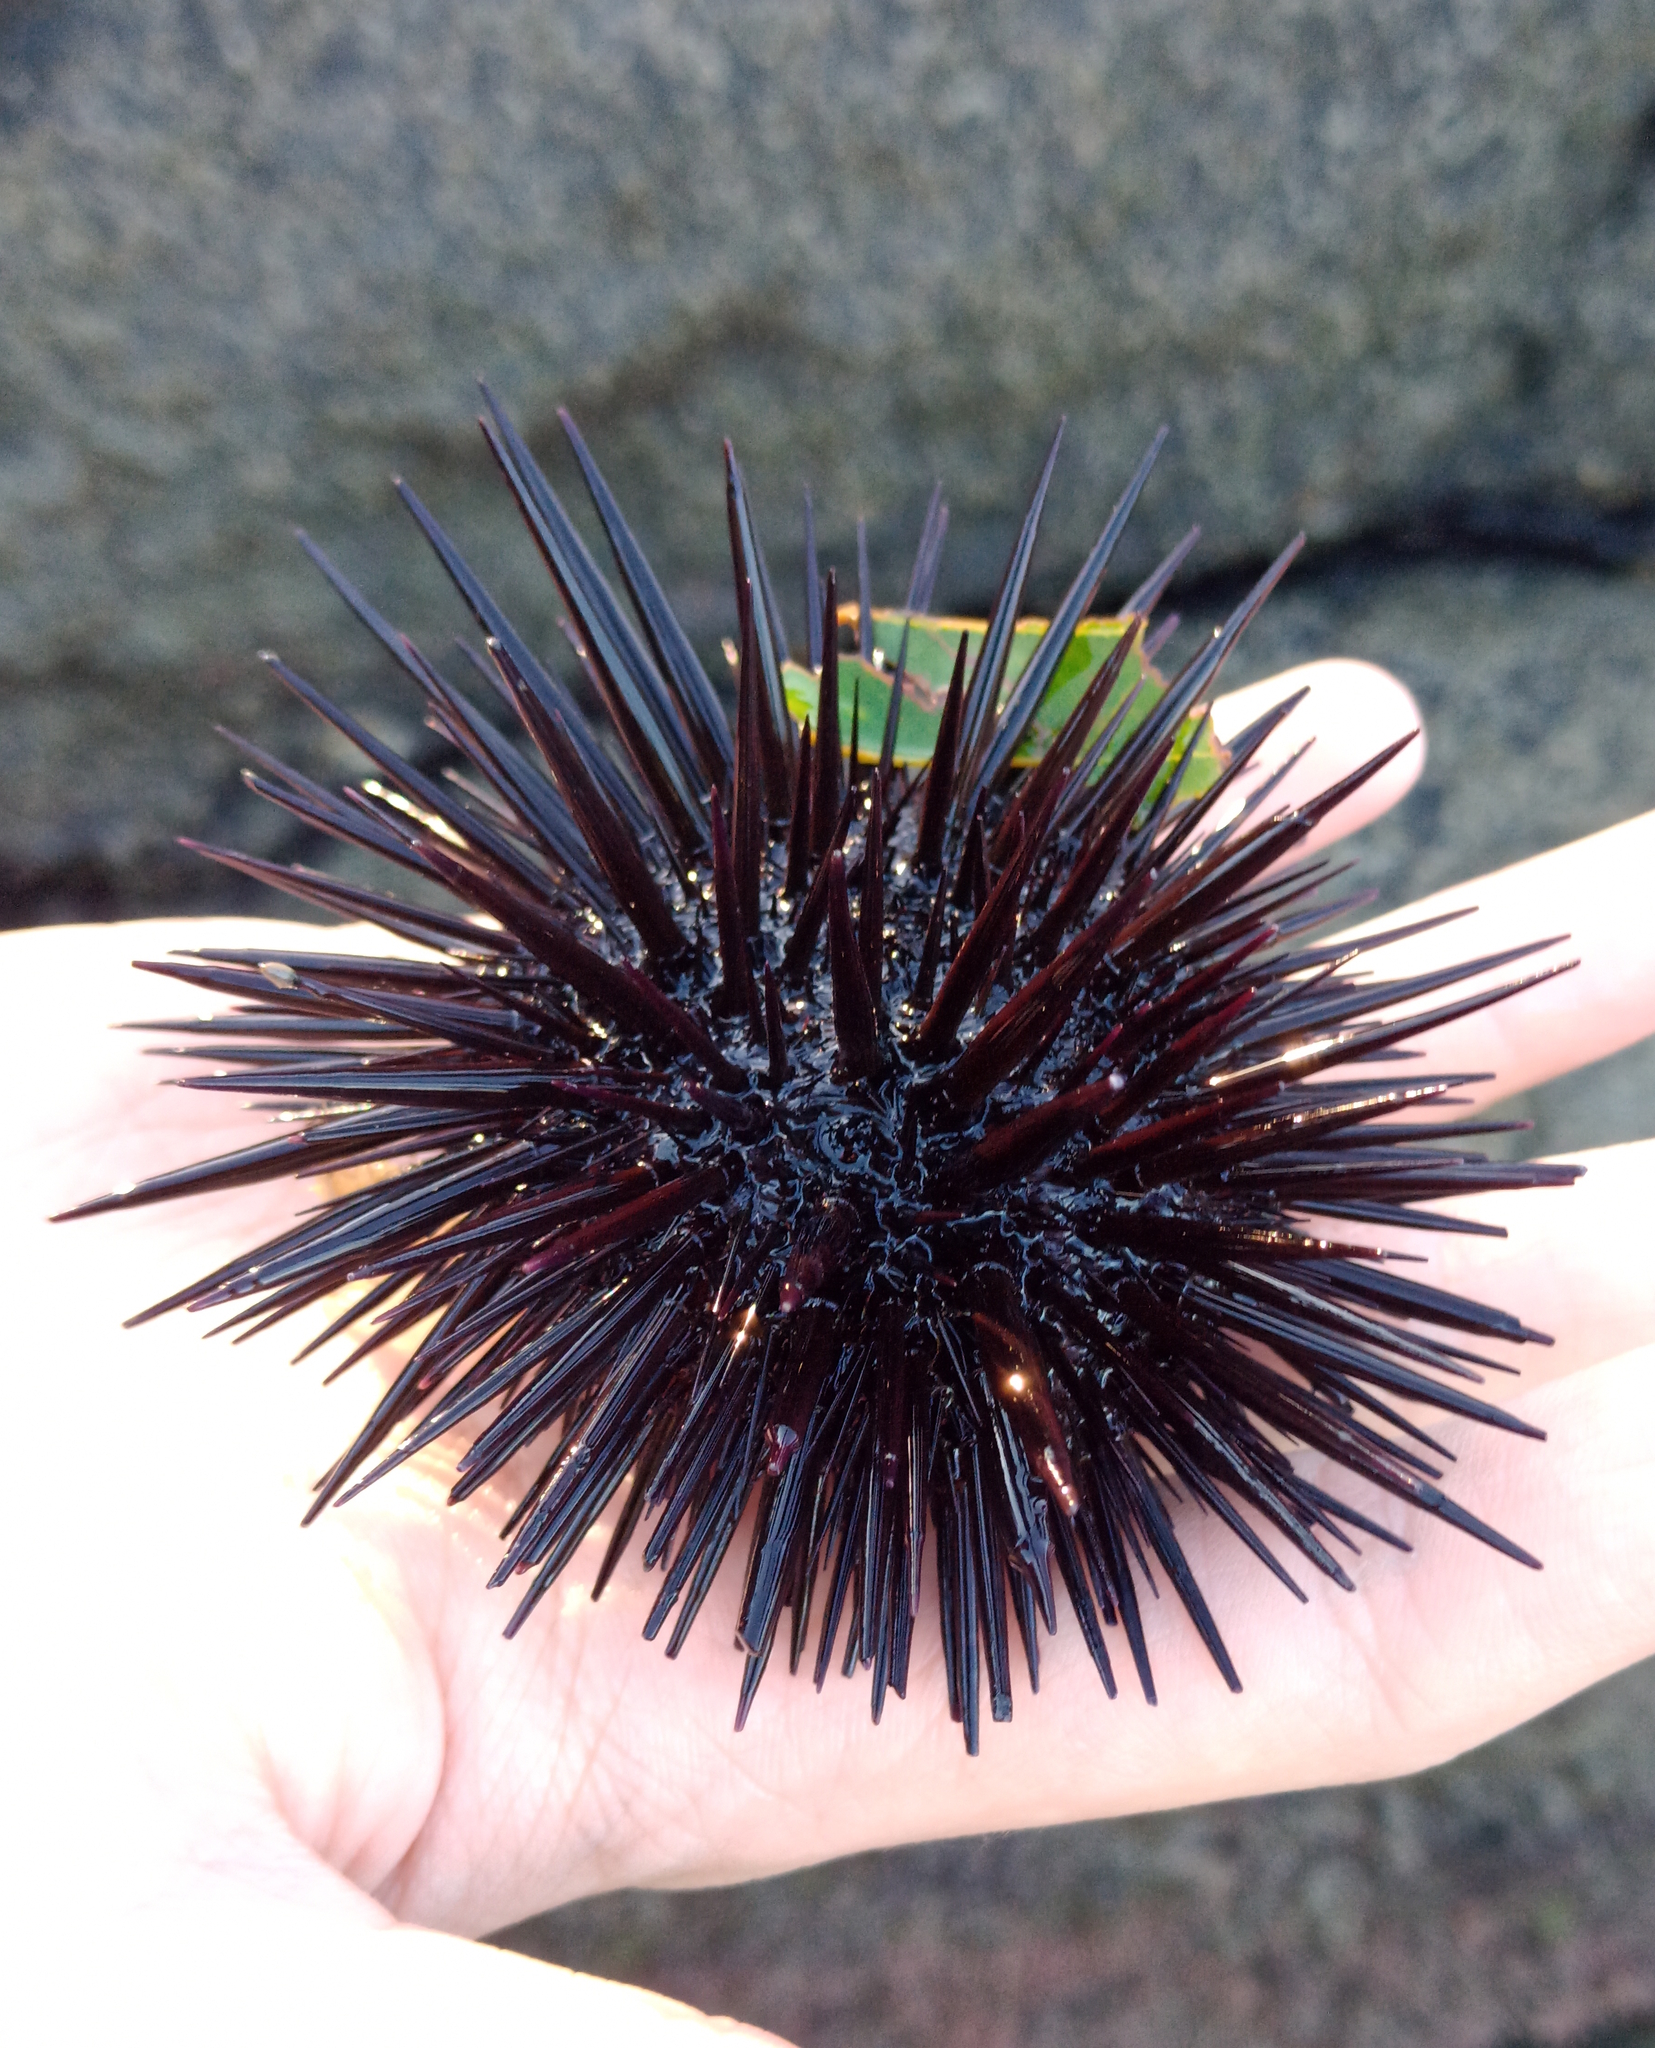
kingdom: Animalia
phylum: Echinodermata
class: Echinoidea
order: Camarodonta
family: Echinometridae
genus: Echinometra
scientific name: Echinometra lucunter
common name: Rock urchin
